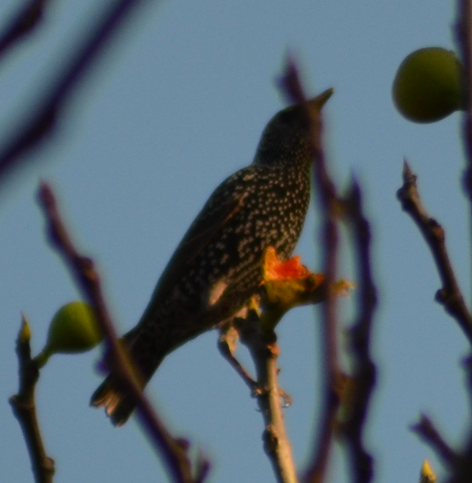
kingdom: Animalia
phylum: Chordata
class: Aves
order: Passeriformes
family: Sturnidae
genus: Sturnus
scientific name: Sturnus vulgaris
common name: Common starling
